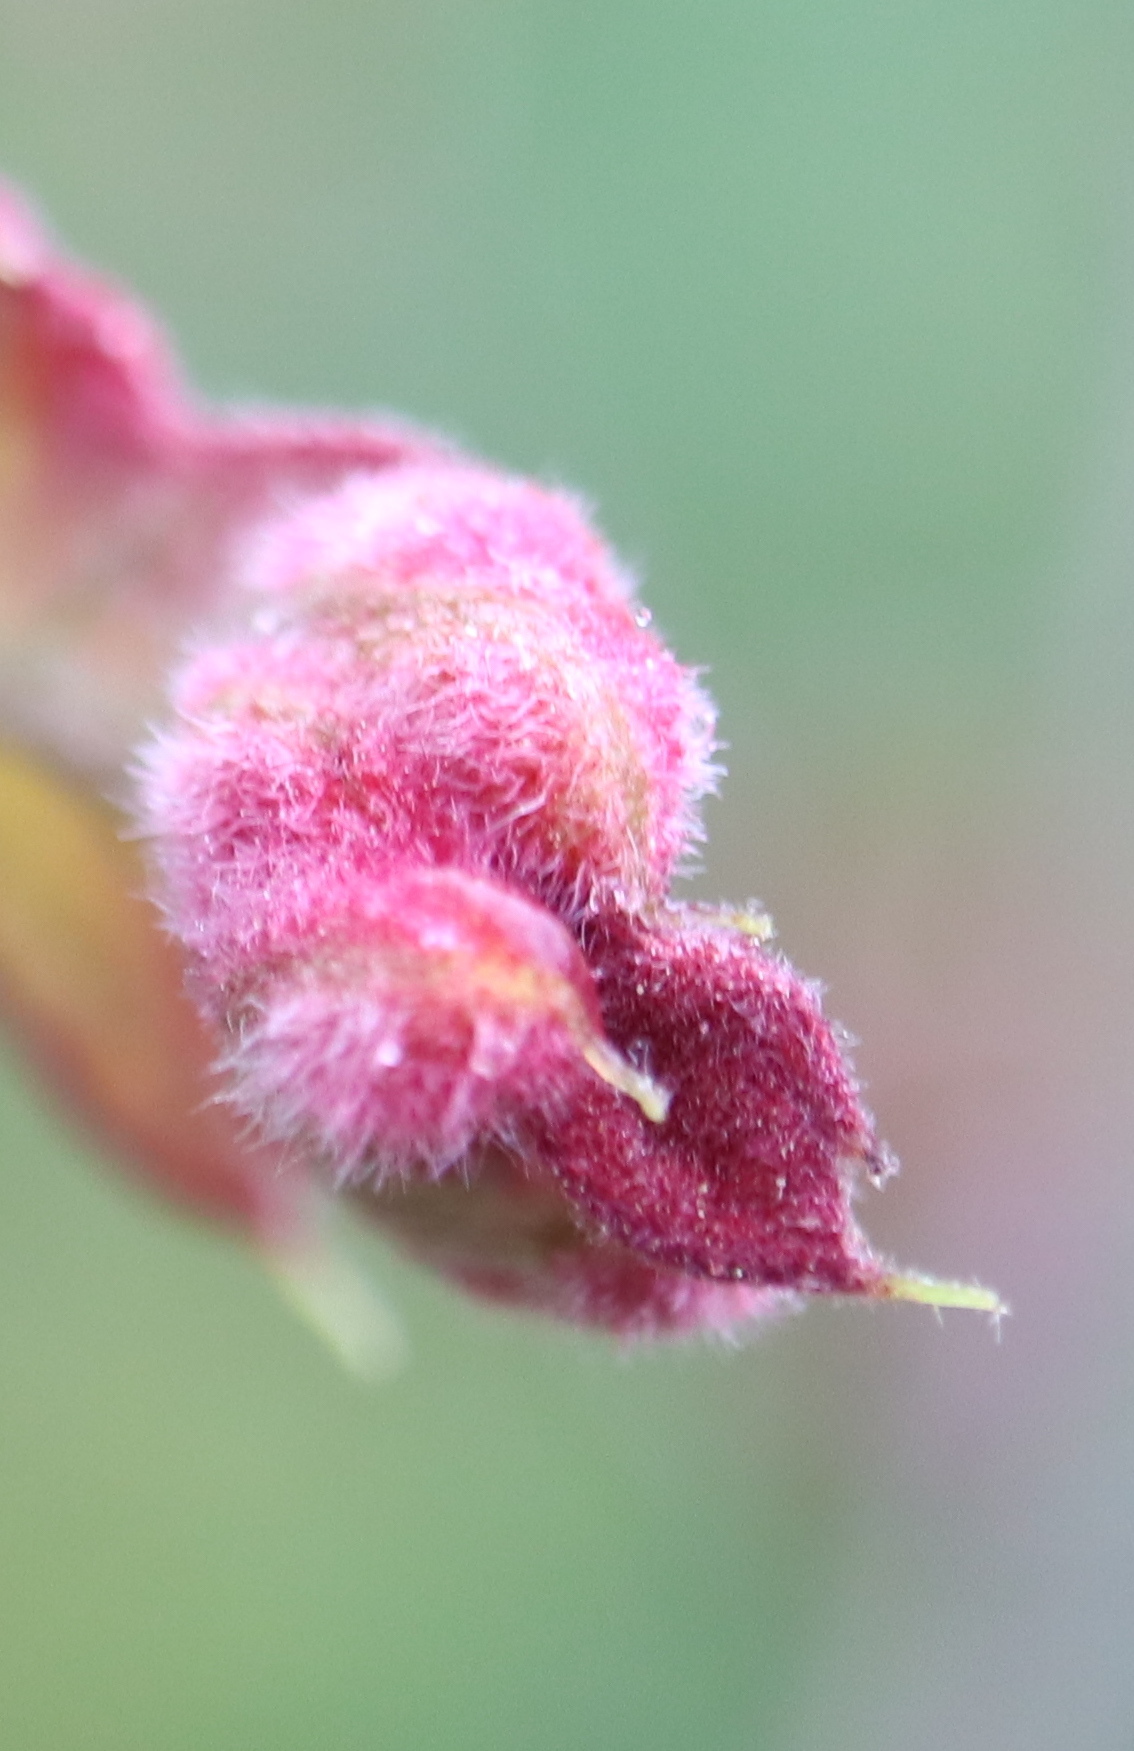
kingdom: Animalia
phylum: Arthropoda
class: Insecta
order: Diptera
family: Cecidomyiidae
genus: Macrodiplosis
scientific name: Macrodiplosis niveipila
